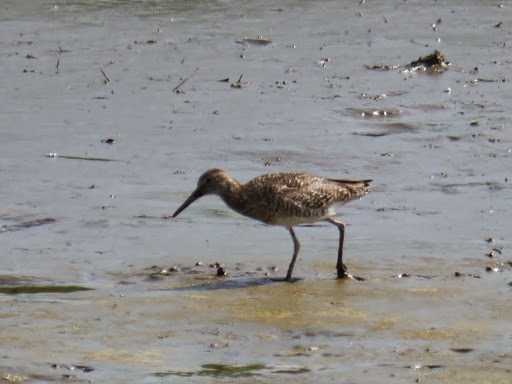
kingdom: Animalia
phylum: Chordata
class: Aves
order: Charadriiformes
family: Scolopacidae
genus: Tringa
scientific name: Tringa semipalmata
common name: Willet
